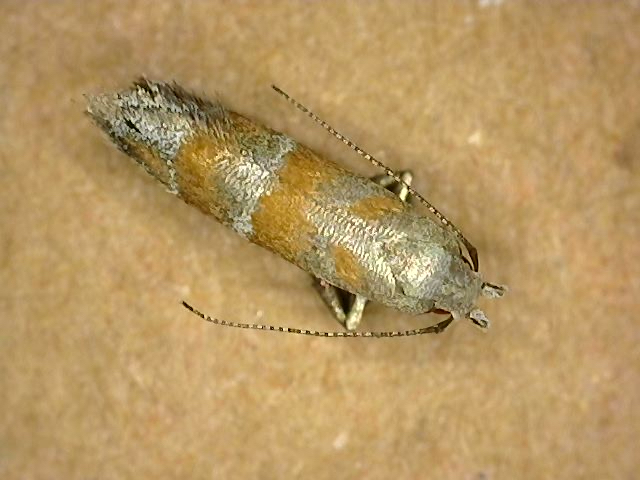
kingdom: Animalia
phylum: Arthropoda
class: Insecta
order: Lepidoptera
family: Gelechiidae
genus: Battaristis
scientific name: Battaristis vittella
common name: Orange stripe-backed moth
